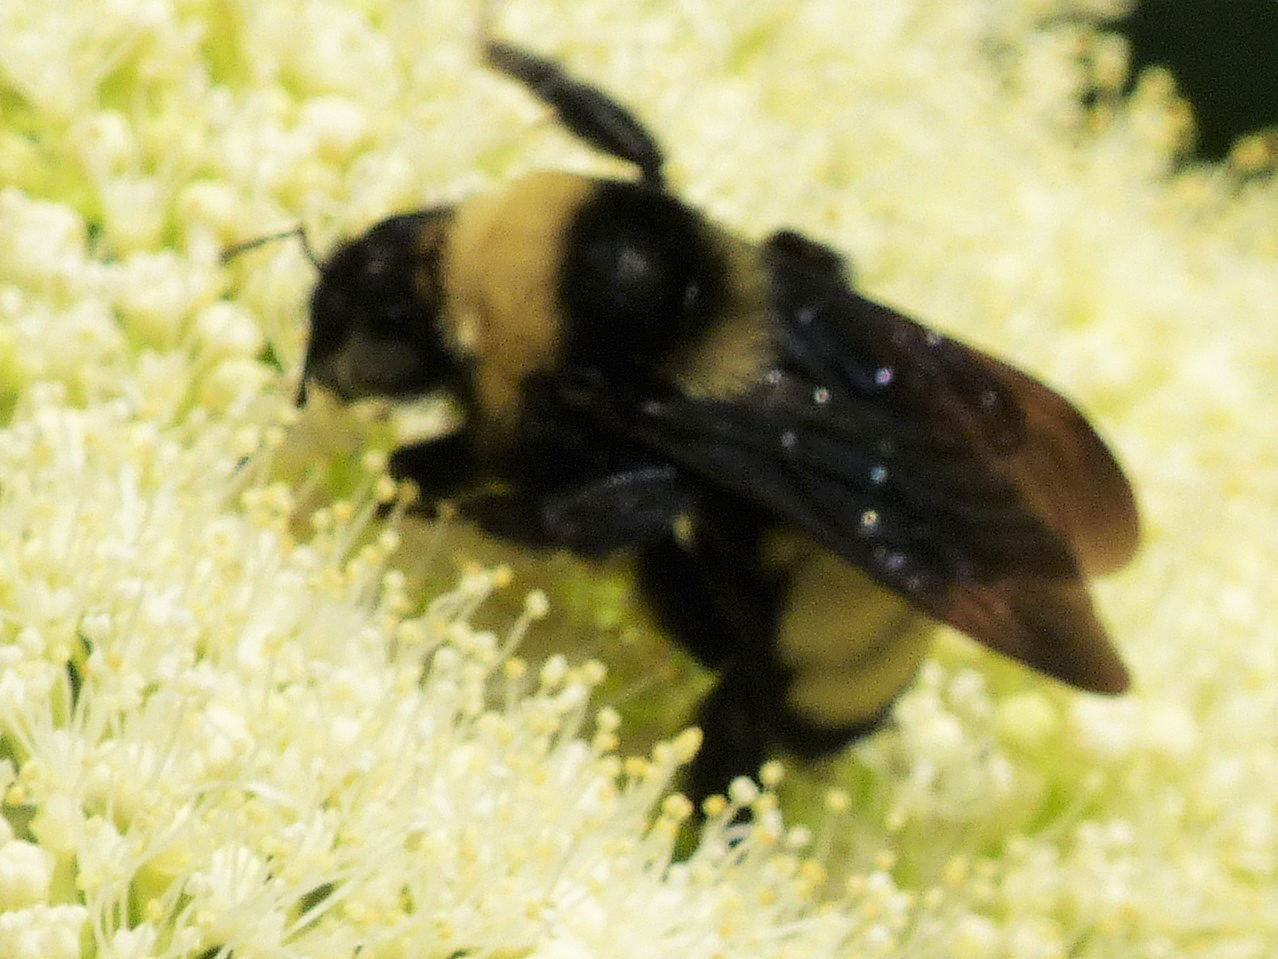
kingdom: Animalia
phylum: Arthropoda
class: Insecta
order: Hymenoptera
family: Apidae
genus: Bombus
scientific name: Bombus auricomus
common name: Black and gold bumble bee
